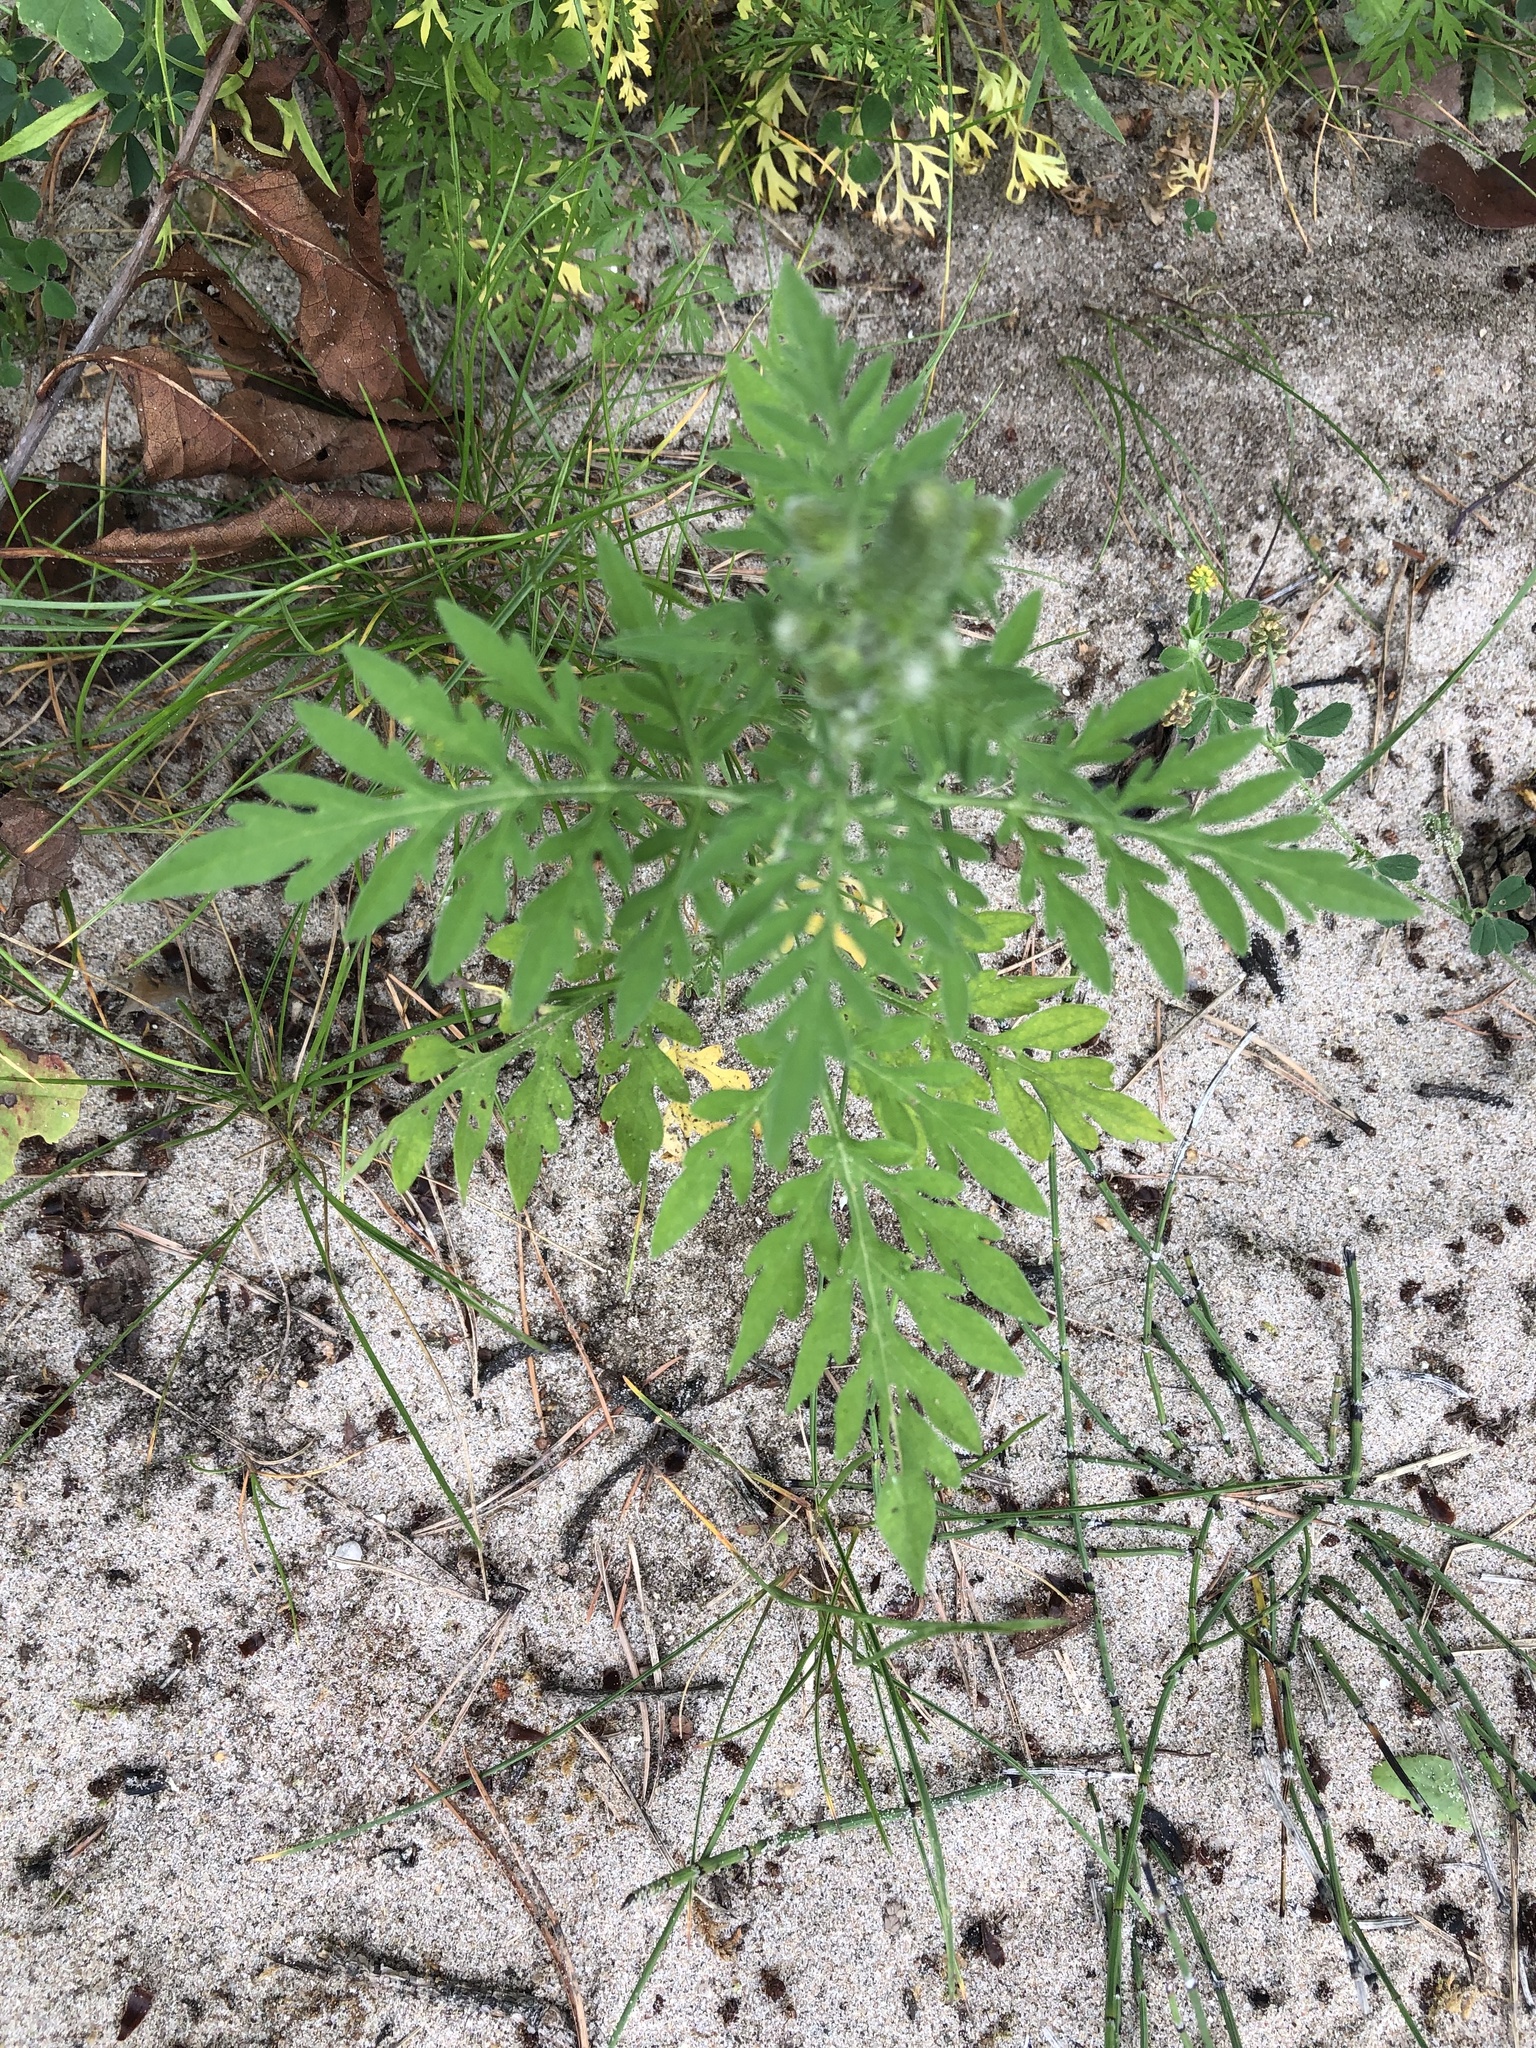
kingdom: Plantae
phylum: Tracheophyta
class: Magnoliopsida
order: Asterales
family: Asteraceae
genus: Ambrosia
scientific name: Ambrosia artemisiifolia
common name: Annual ragweed
